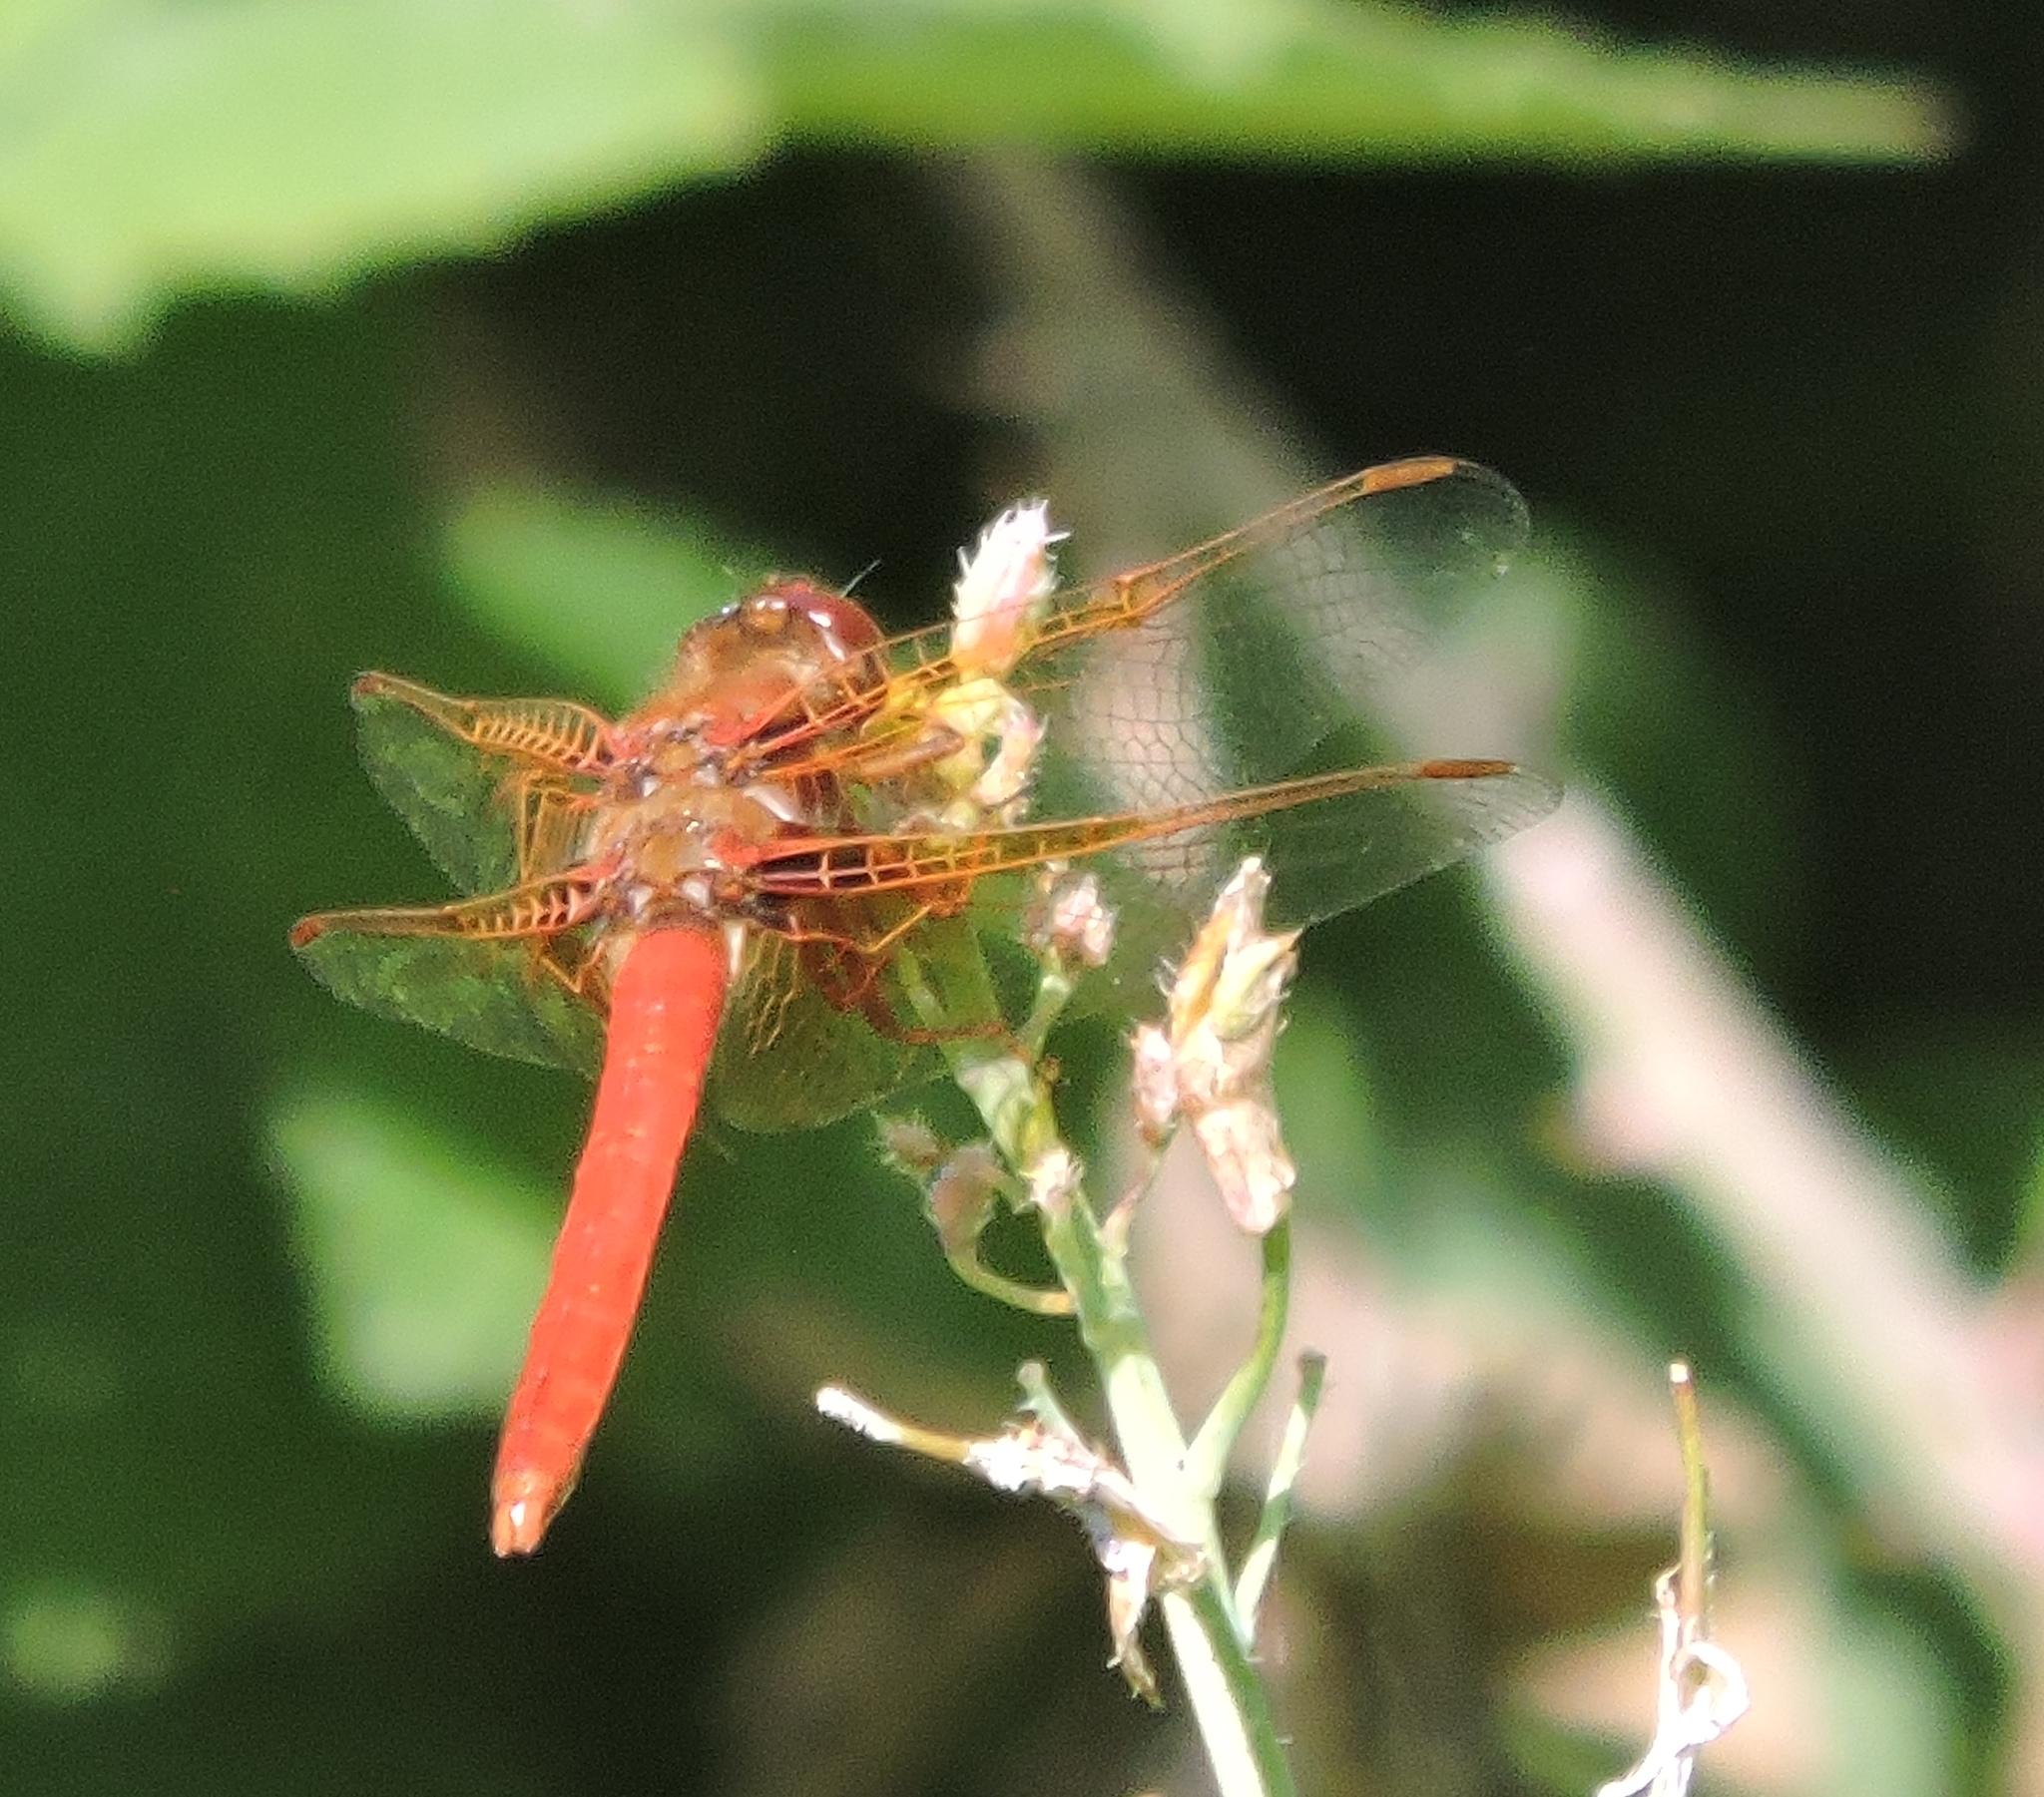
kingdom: Animalia
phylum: Arthropoda
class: Insecta
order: Odonata
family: Libellulidae
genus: Sympetrum
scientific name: Sympetrum illotum
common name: Cardinal meadowhawk
